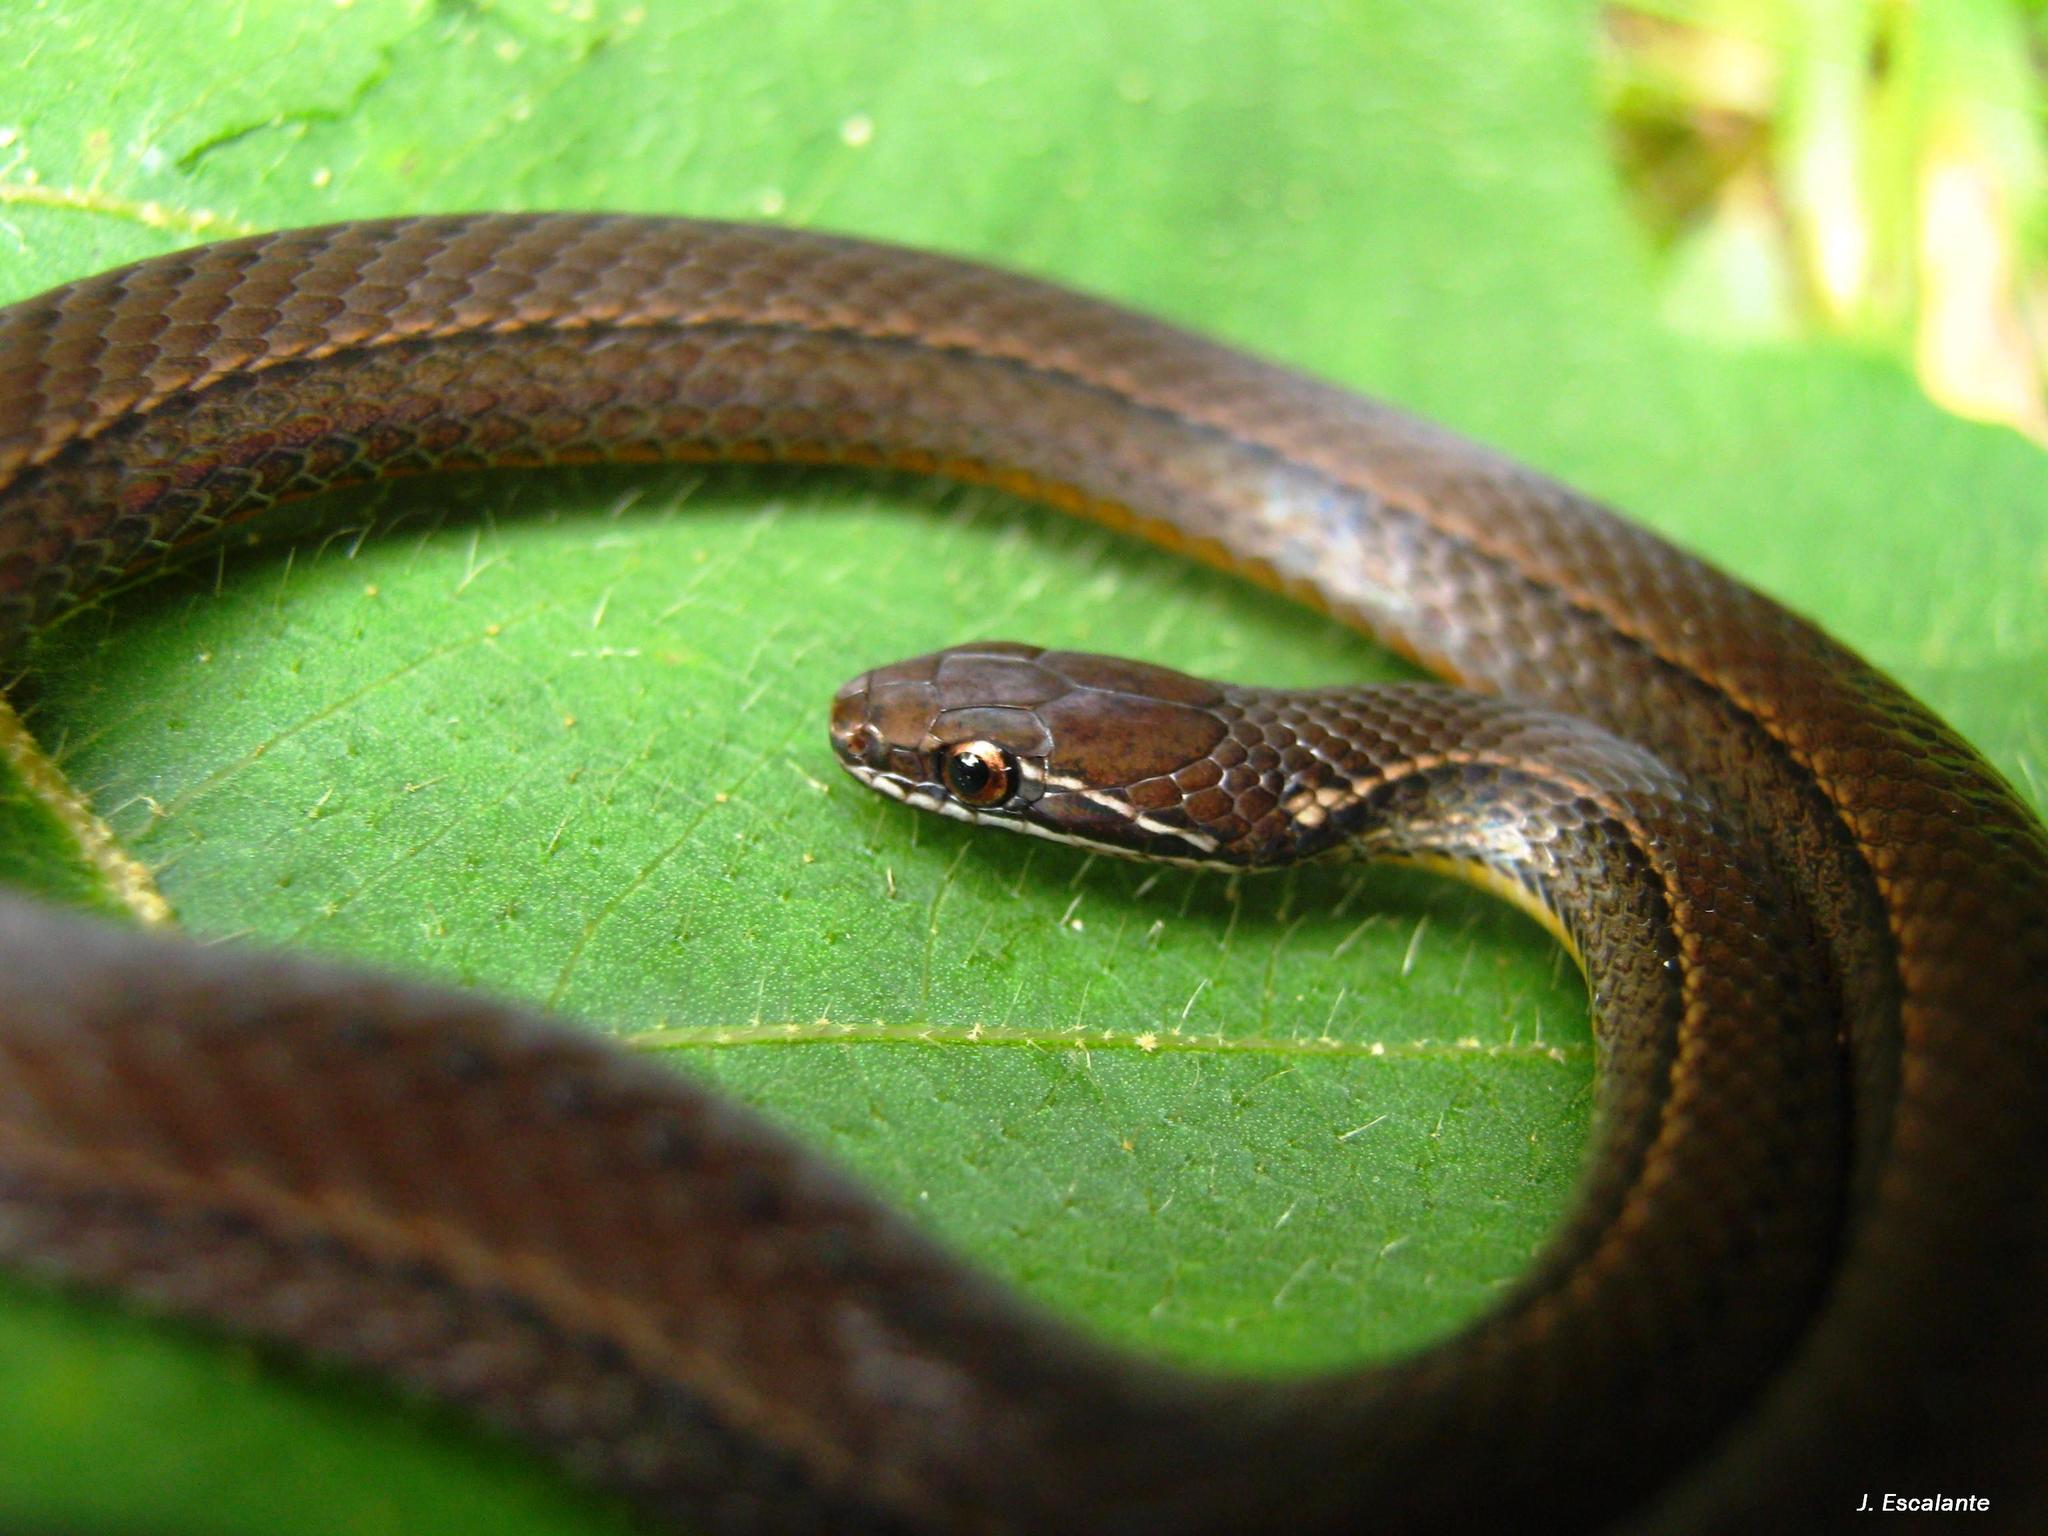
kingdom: Animalia
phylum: Chordata
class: Squamata
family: Colubridae
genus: Rhadinaea
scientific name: Rhadinaea macdougalli
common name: Macdougall's graceful brown snake
